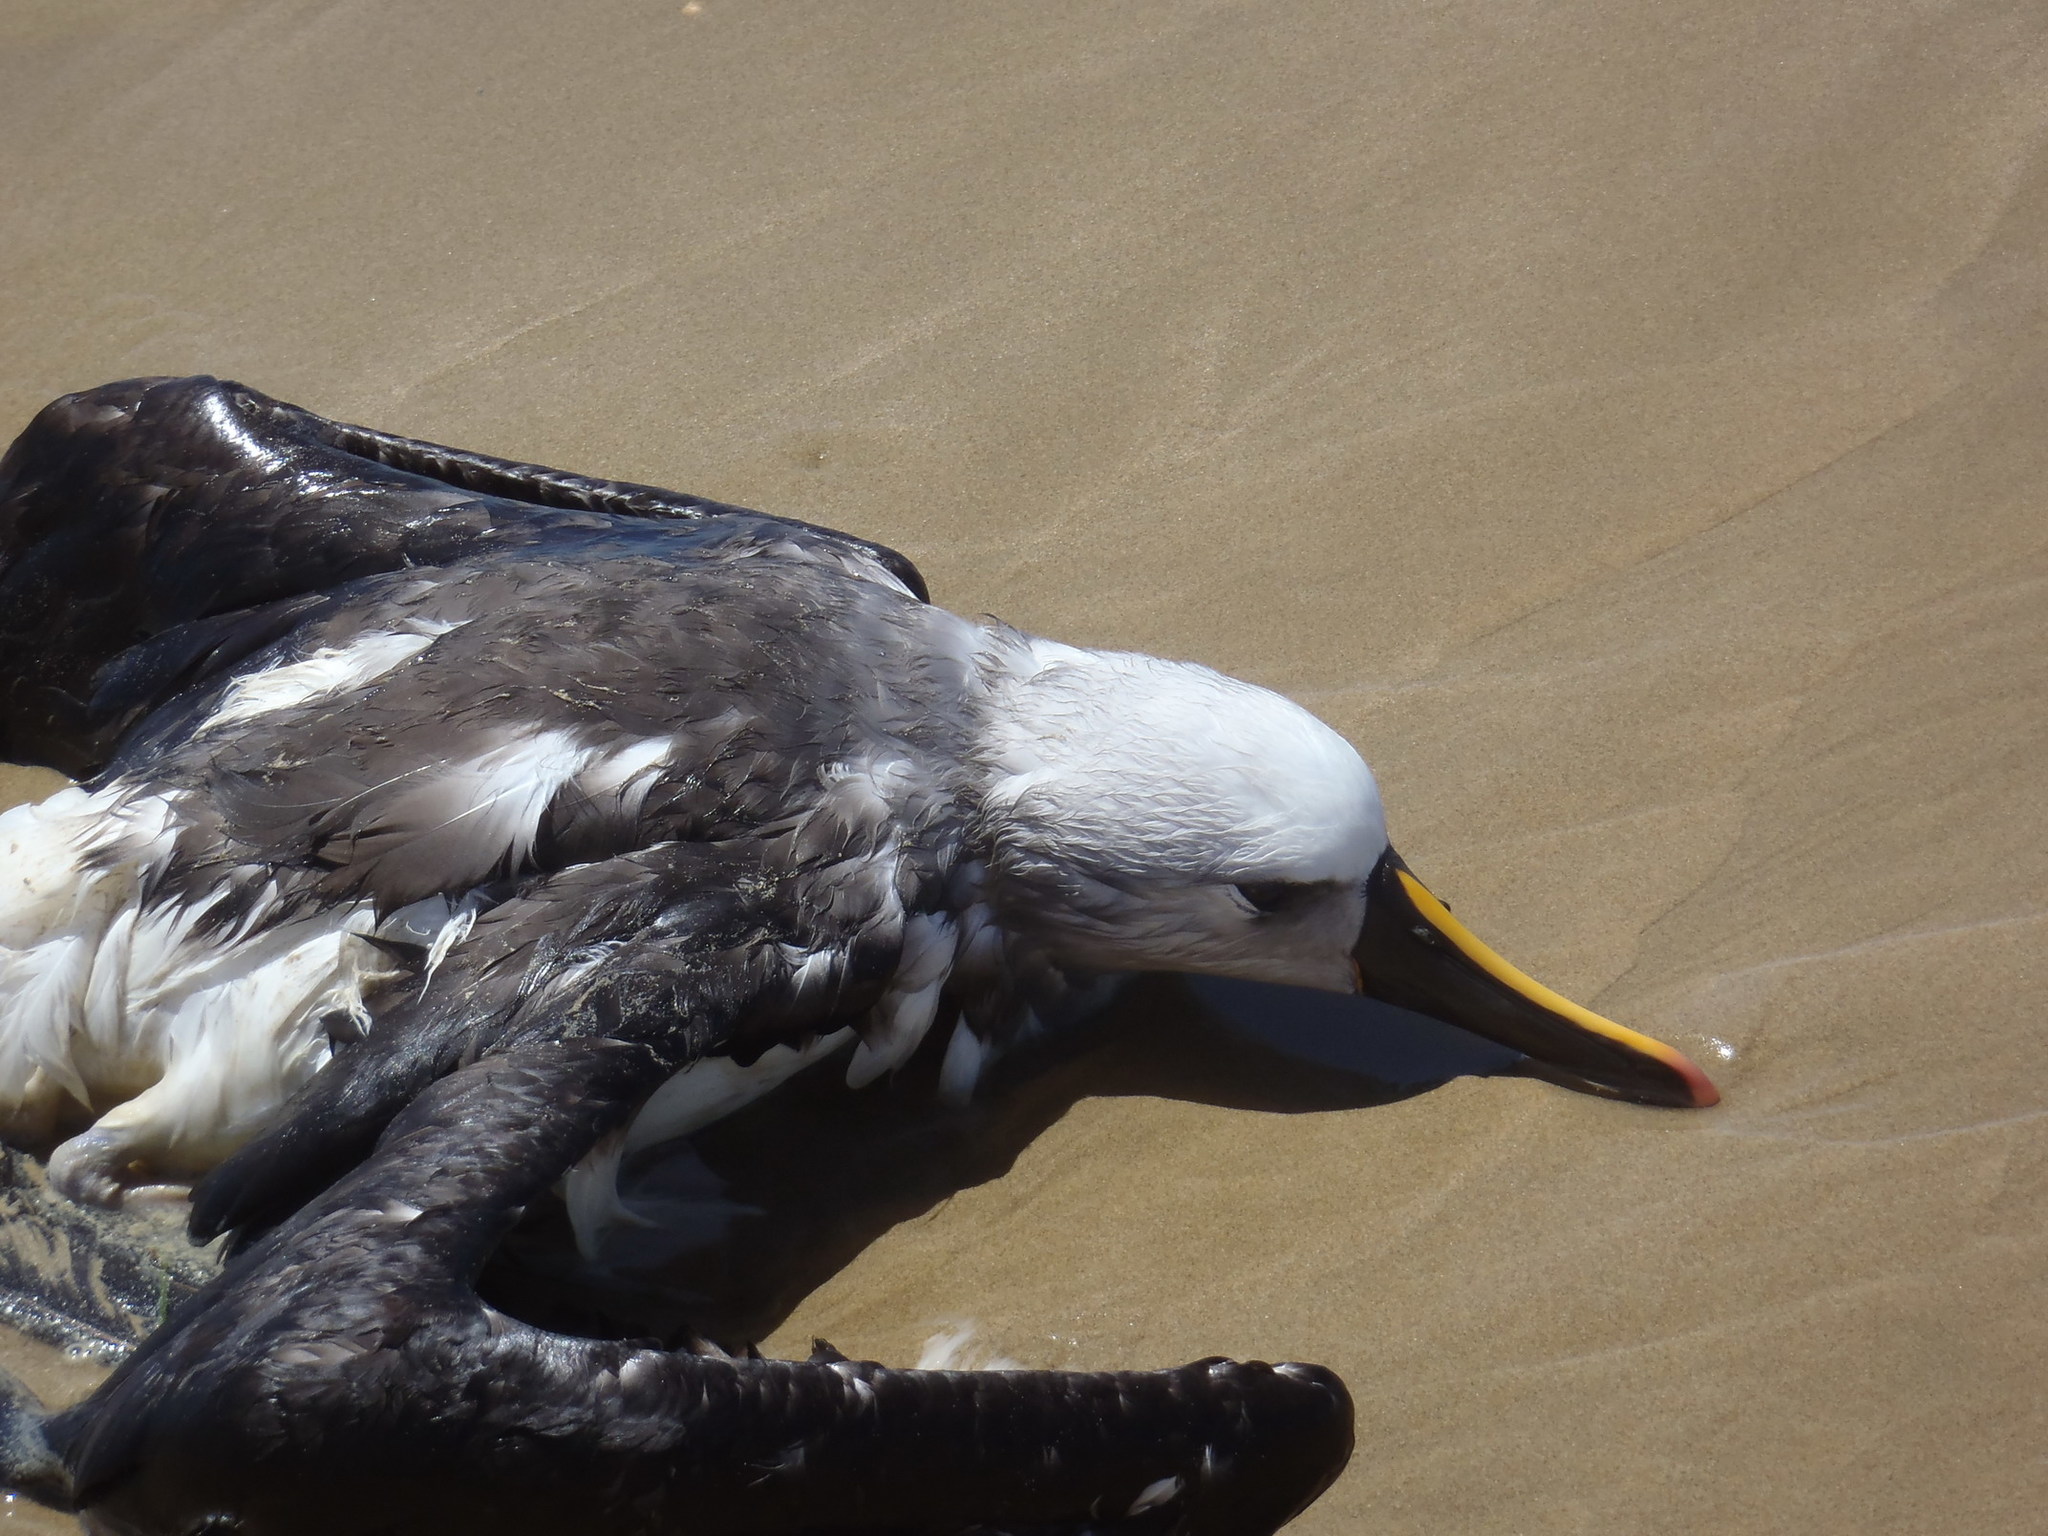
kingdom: Animalia
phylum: Chordata
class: Aves
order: Procellariiformes
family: Diomedeidae
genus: Thalassarche
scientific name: Thalassarche carteri
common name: Indian yellow-nosed albatross
